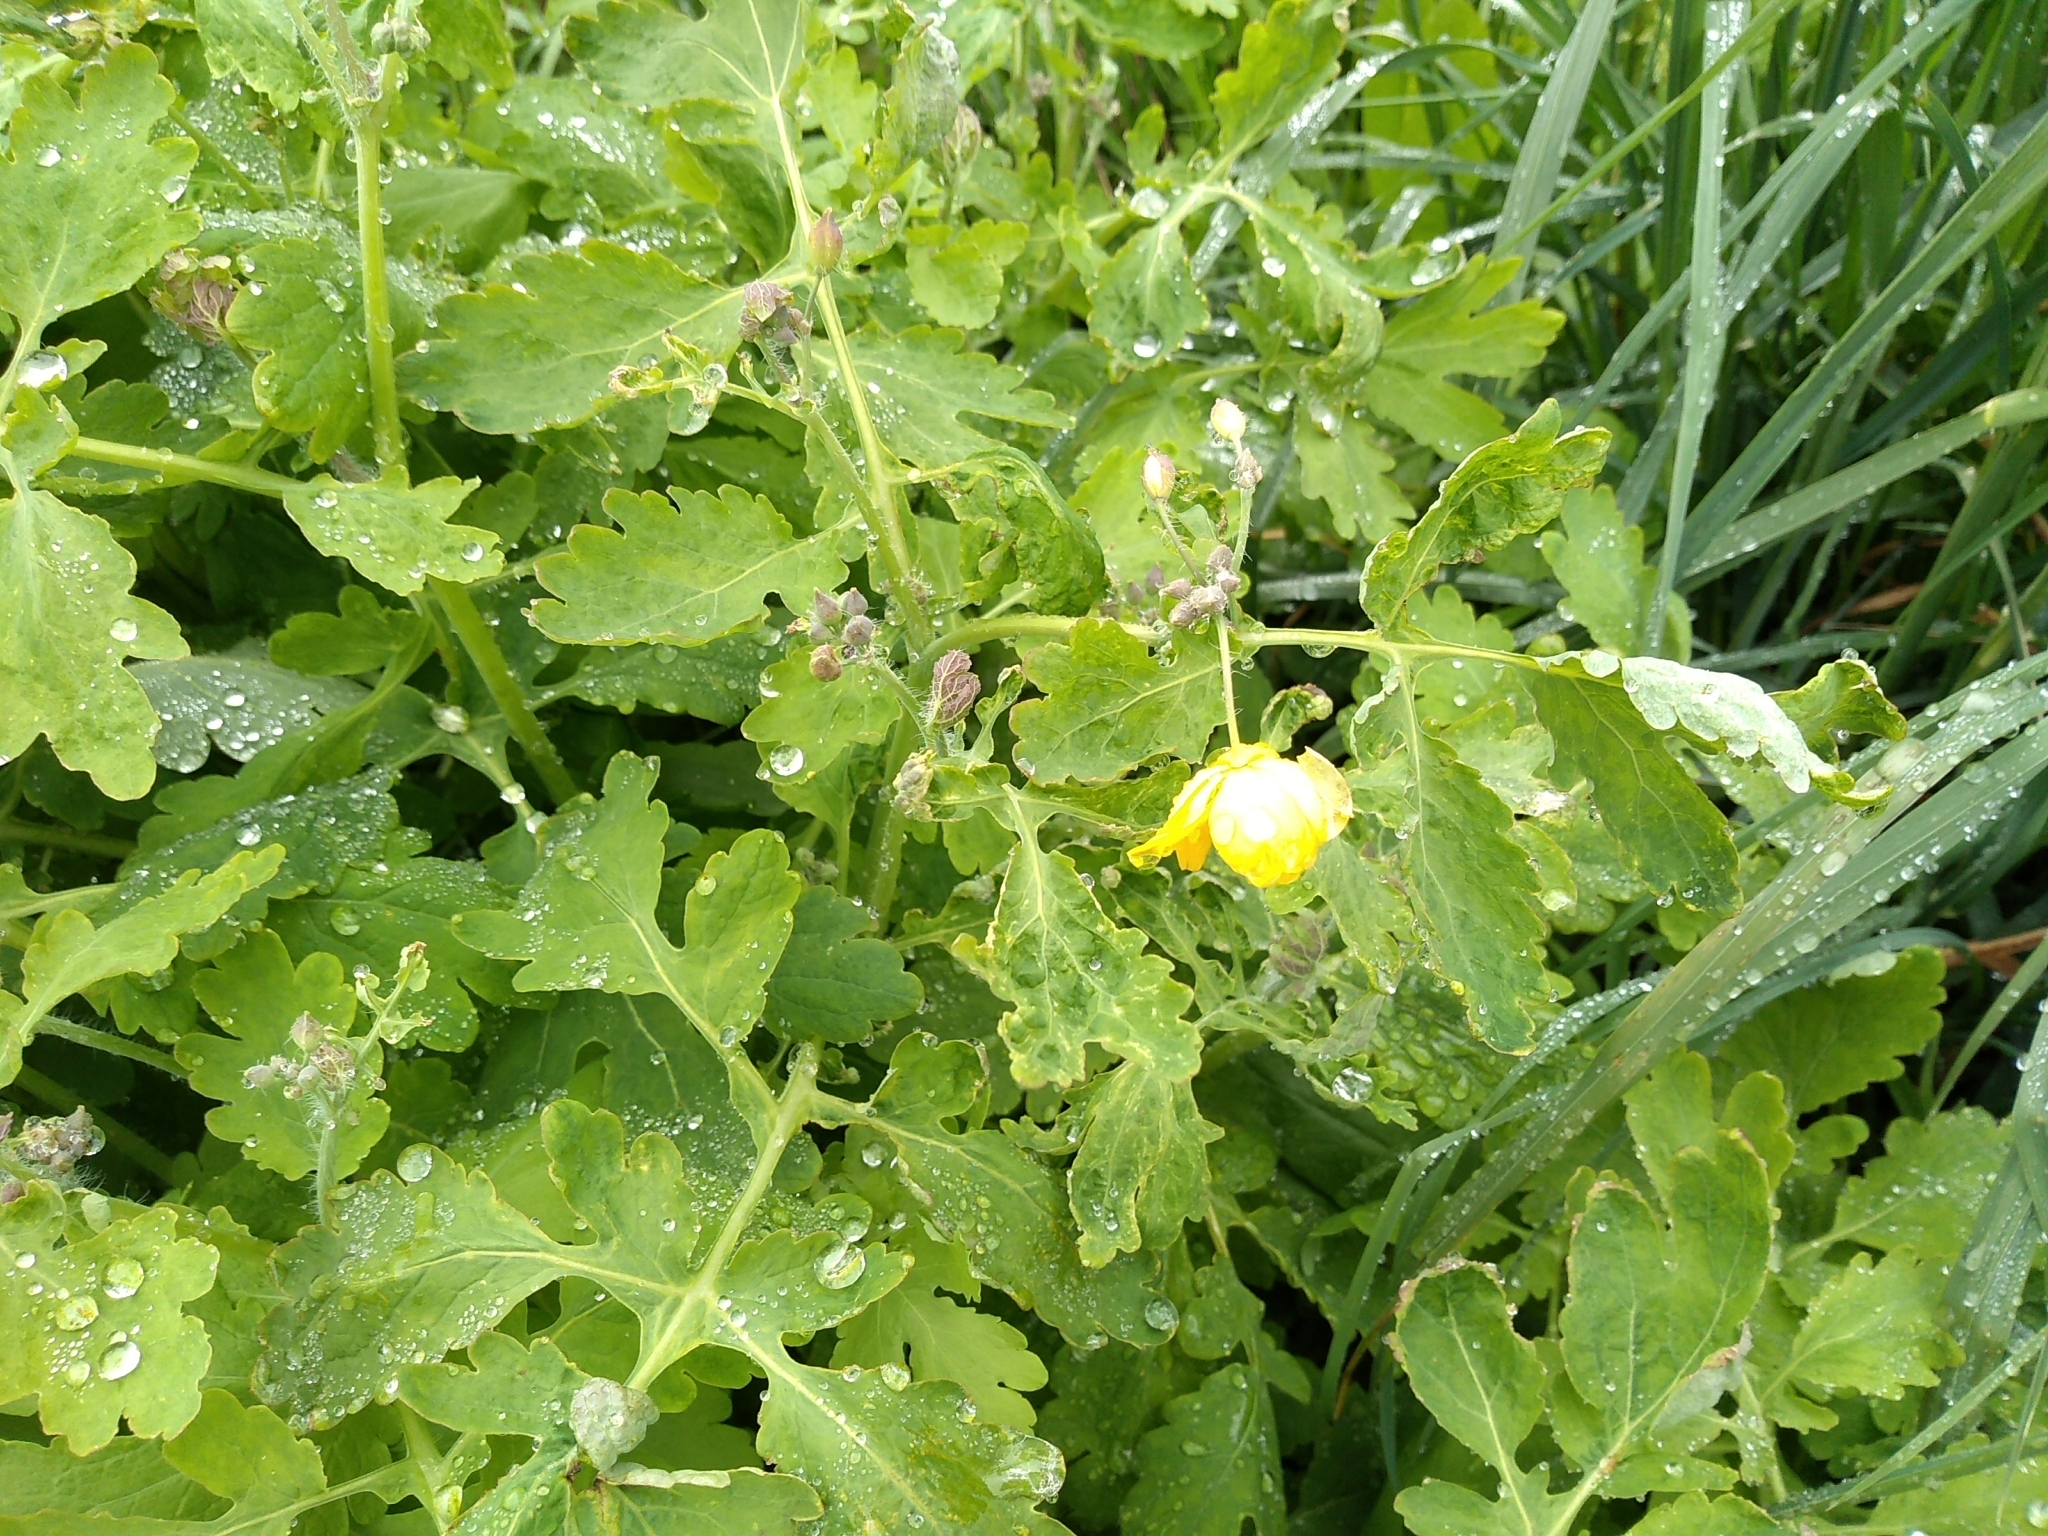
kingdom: Plantae
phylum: Tracheophyta
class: Magnoliopsida
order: Ranunculales
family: Papaveraceae
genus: Chelidonium
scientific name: Chelidonium majus
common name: Greater celandine
